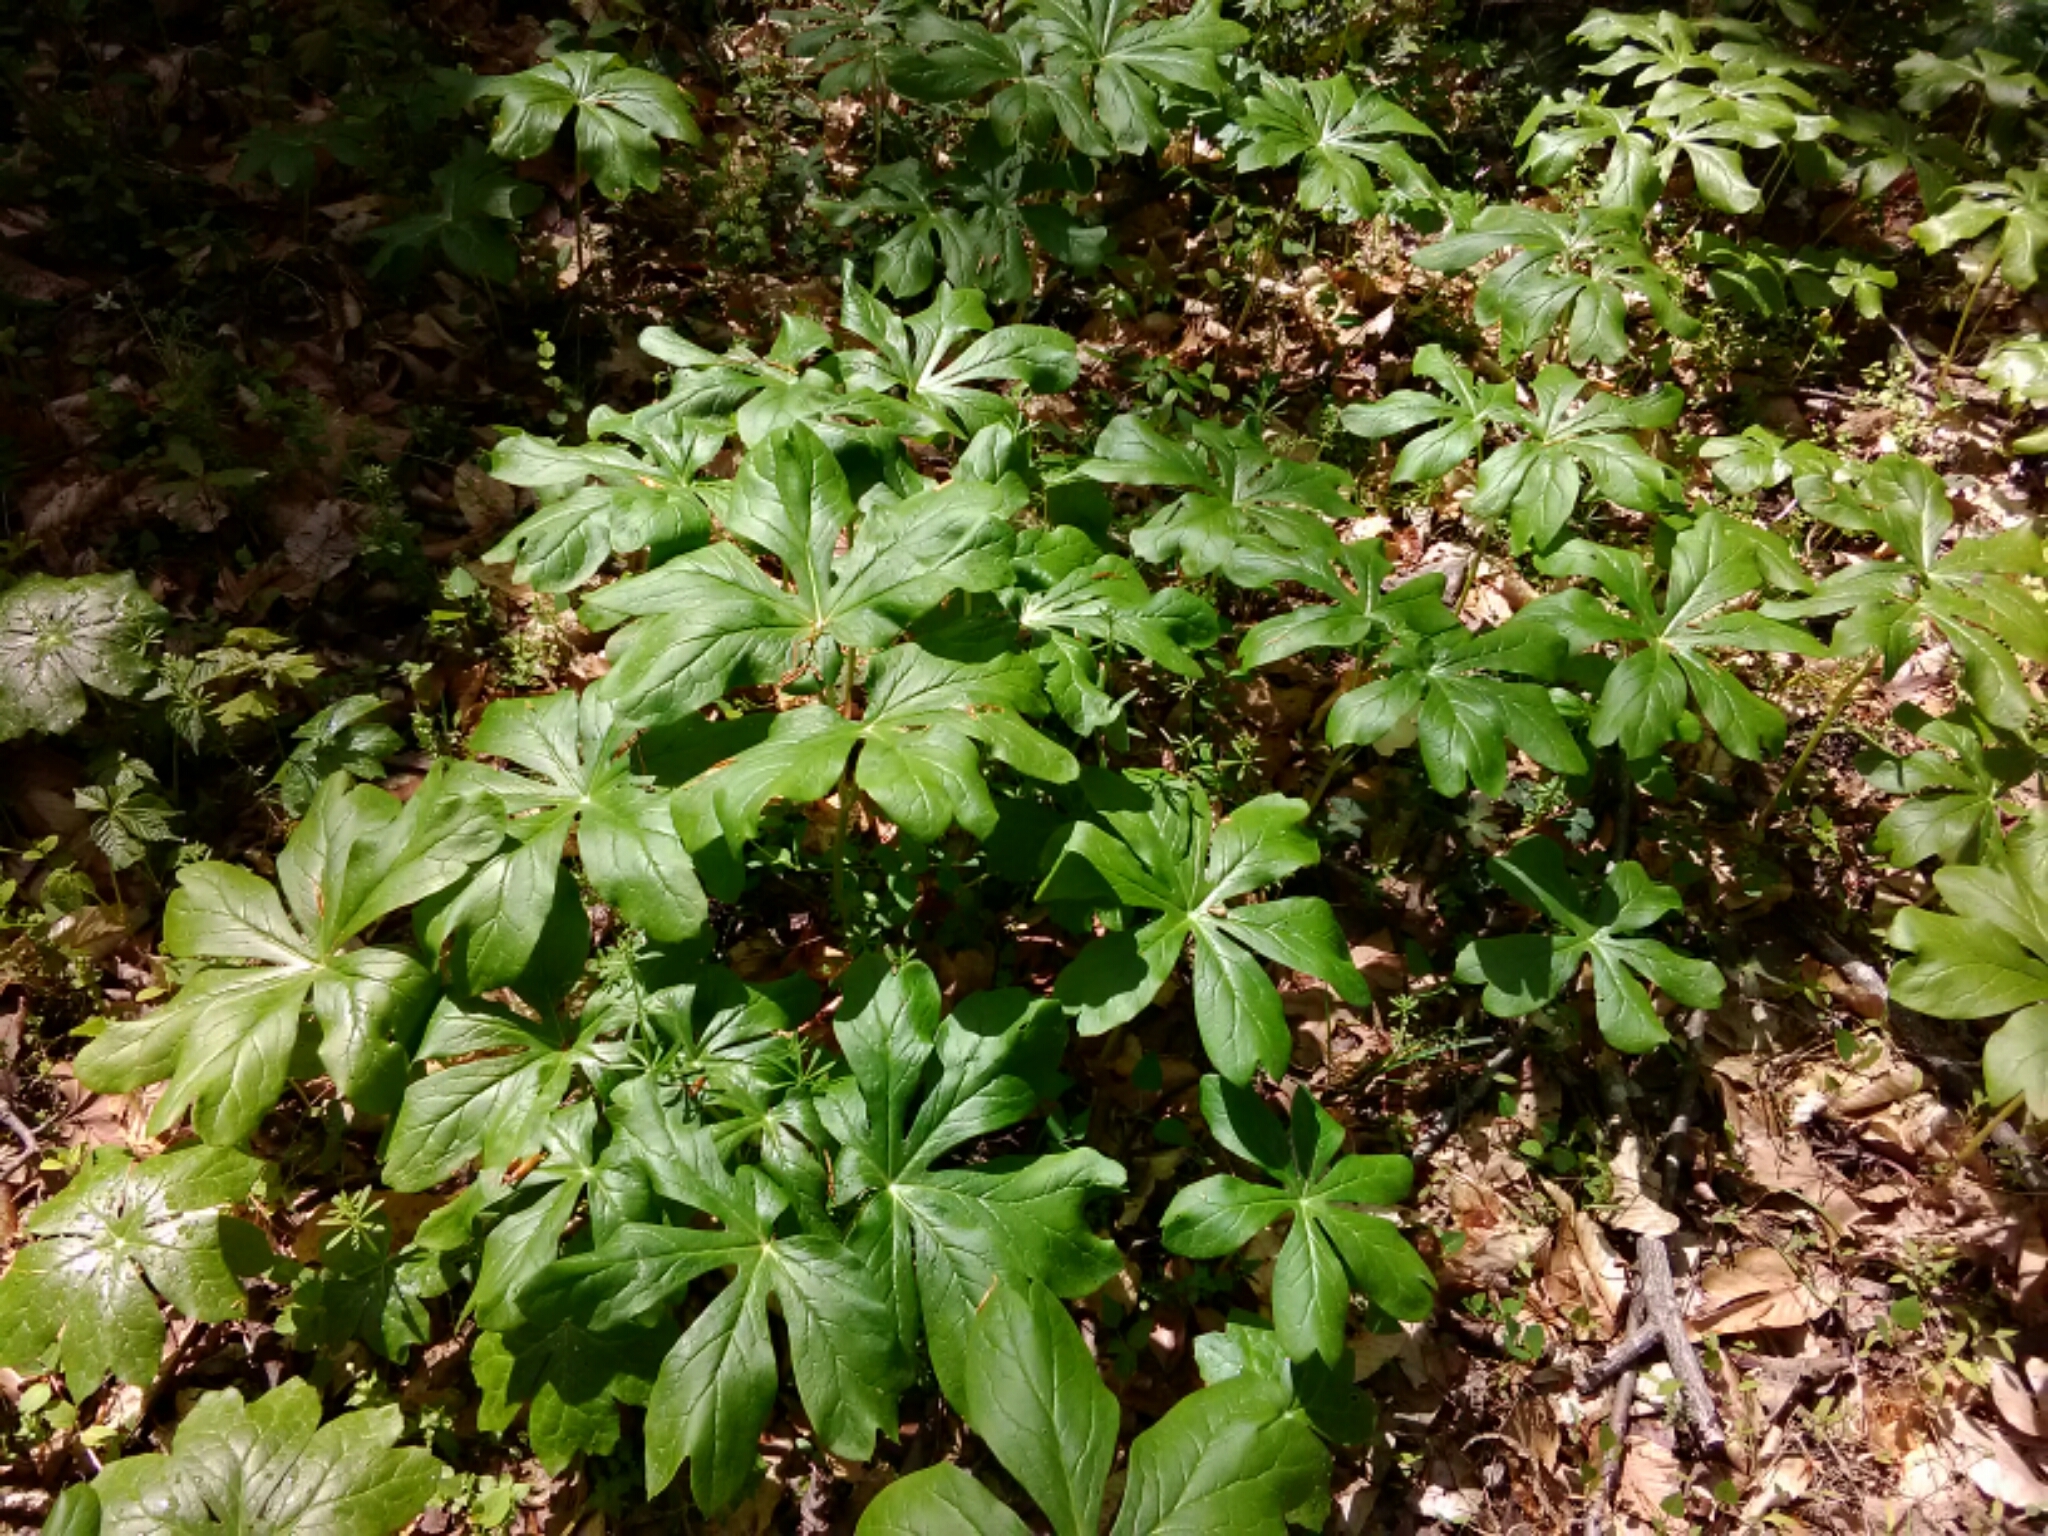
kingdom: Plantae
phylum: Tracheophyta
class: Magnoliopsida
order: Ranunculales
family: Berberidaceae
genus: Podophyllum
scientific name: Podophyllum peltatum
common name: Wild mandrake
